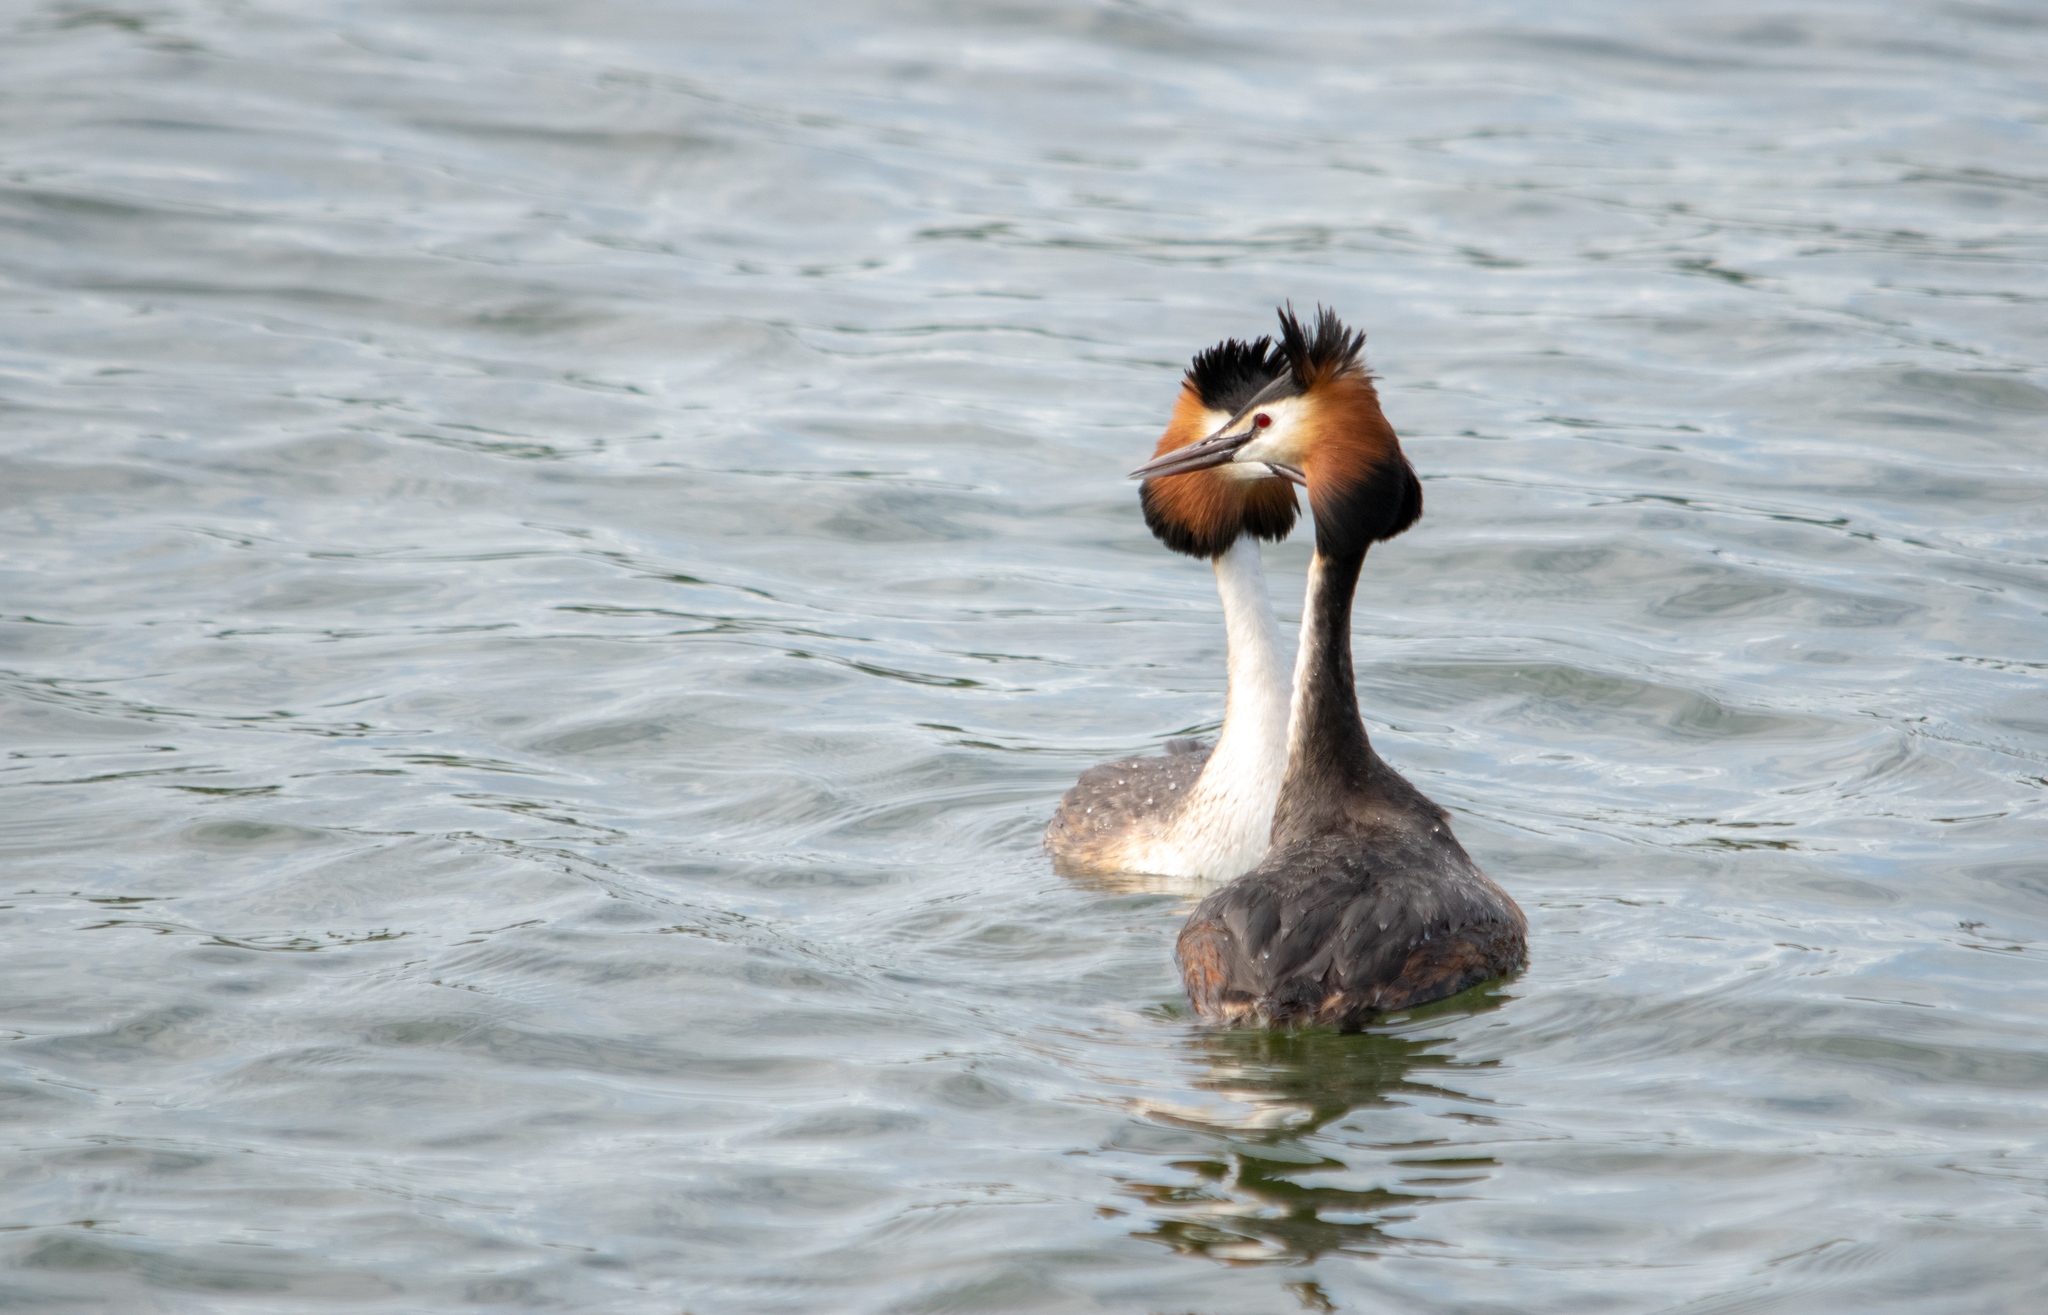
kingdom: Animalia
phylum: Chordata
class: Aves
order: Podicipediformes
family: Podicipedidae
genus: Podiceps
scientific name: Podiceps cristatus
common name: Great crested grebe
